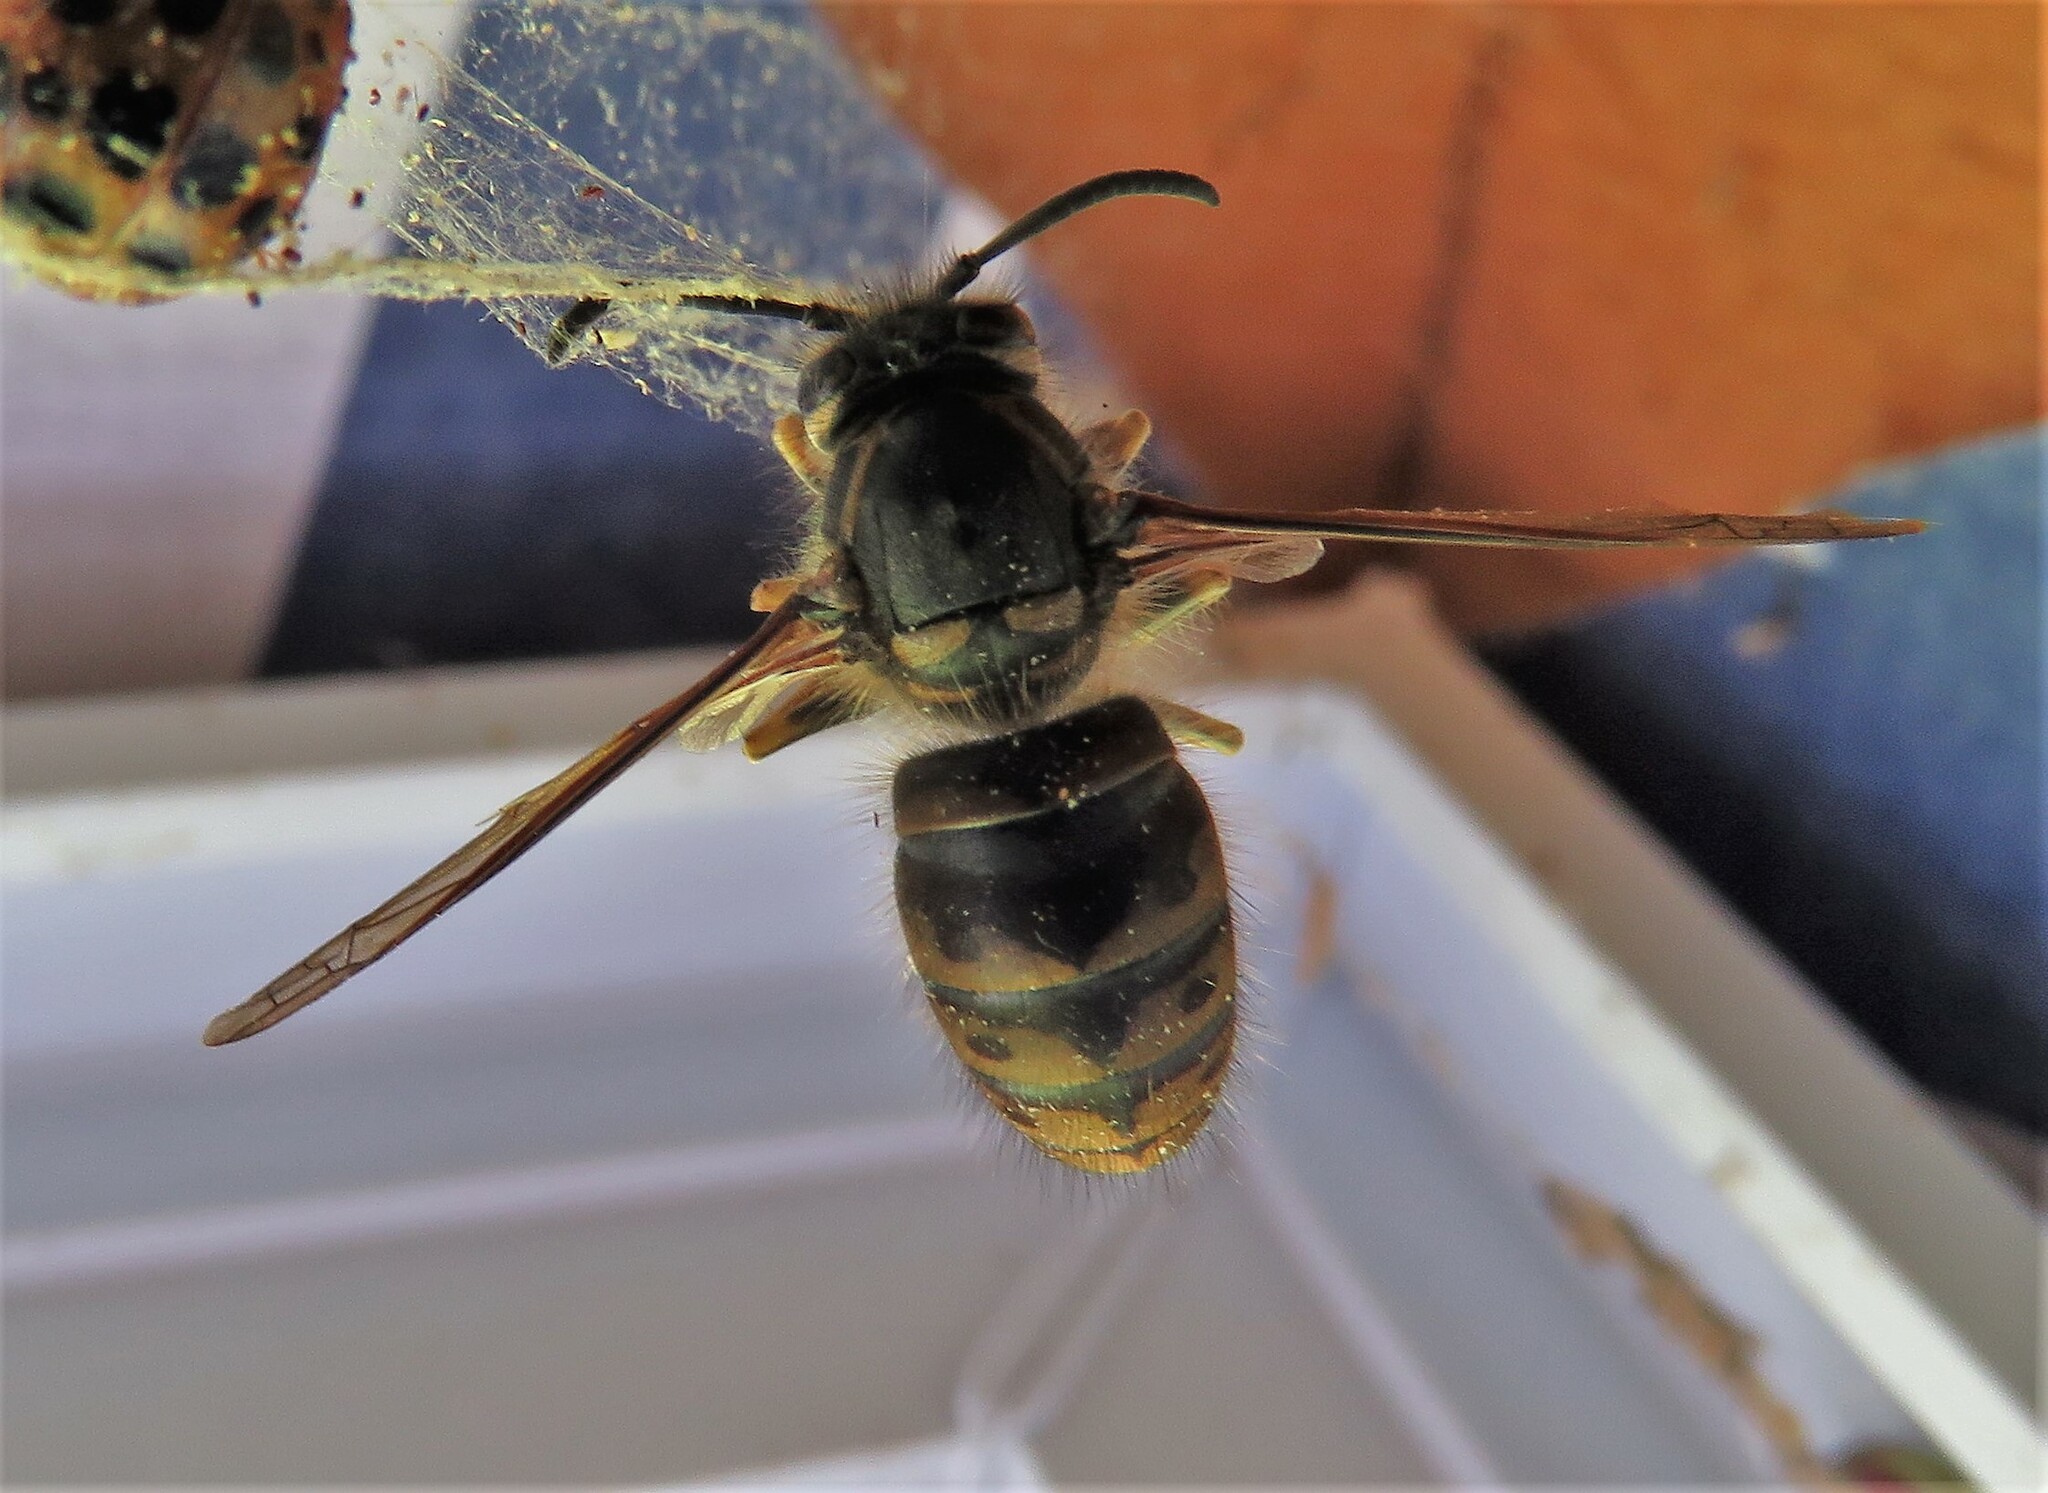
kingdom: Animalia
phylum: Arthropoda
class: Insecta
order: Hymenoptera
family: Vespidae
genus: Dolichovespula
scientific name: Dolichovespula arenaria
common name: Aerial yellowjacket
